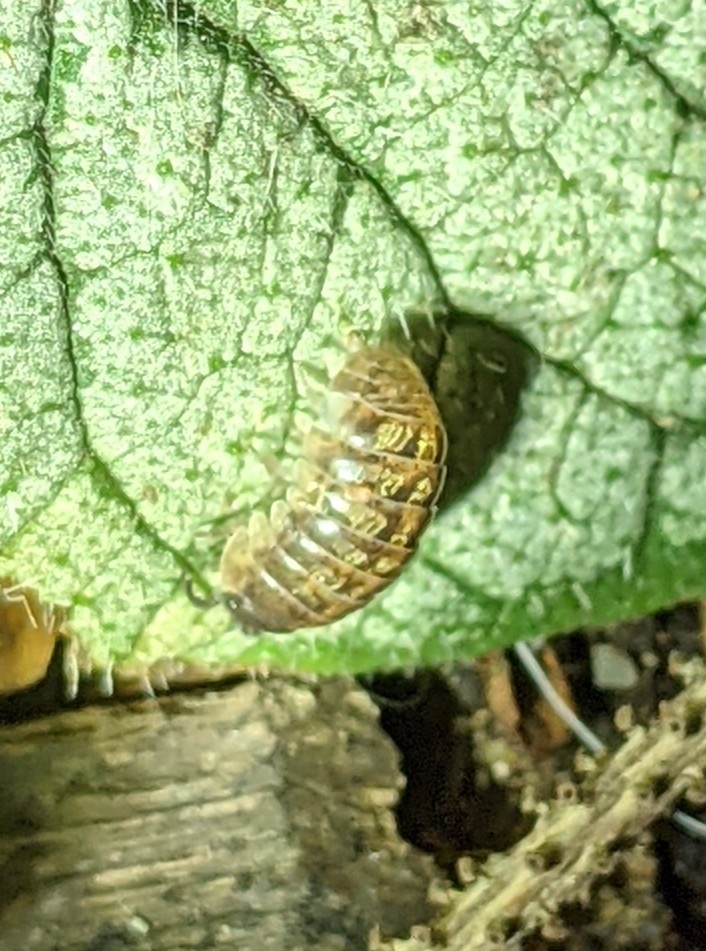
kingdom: Animalia
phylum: Arthropoda
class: Malacostraca
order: Isopoda
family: Armadillidiidae
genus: Armadillidium
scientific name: Armadillidium vulgare
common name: Common pill woodlouse
